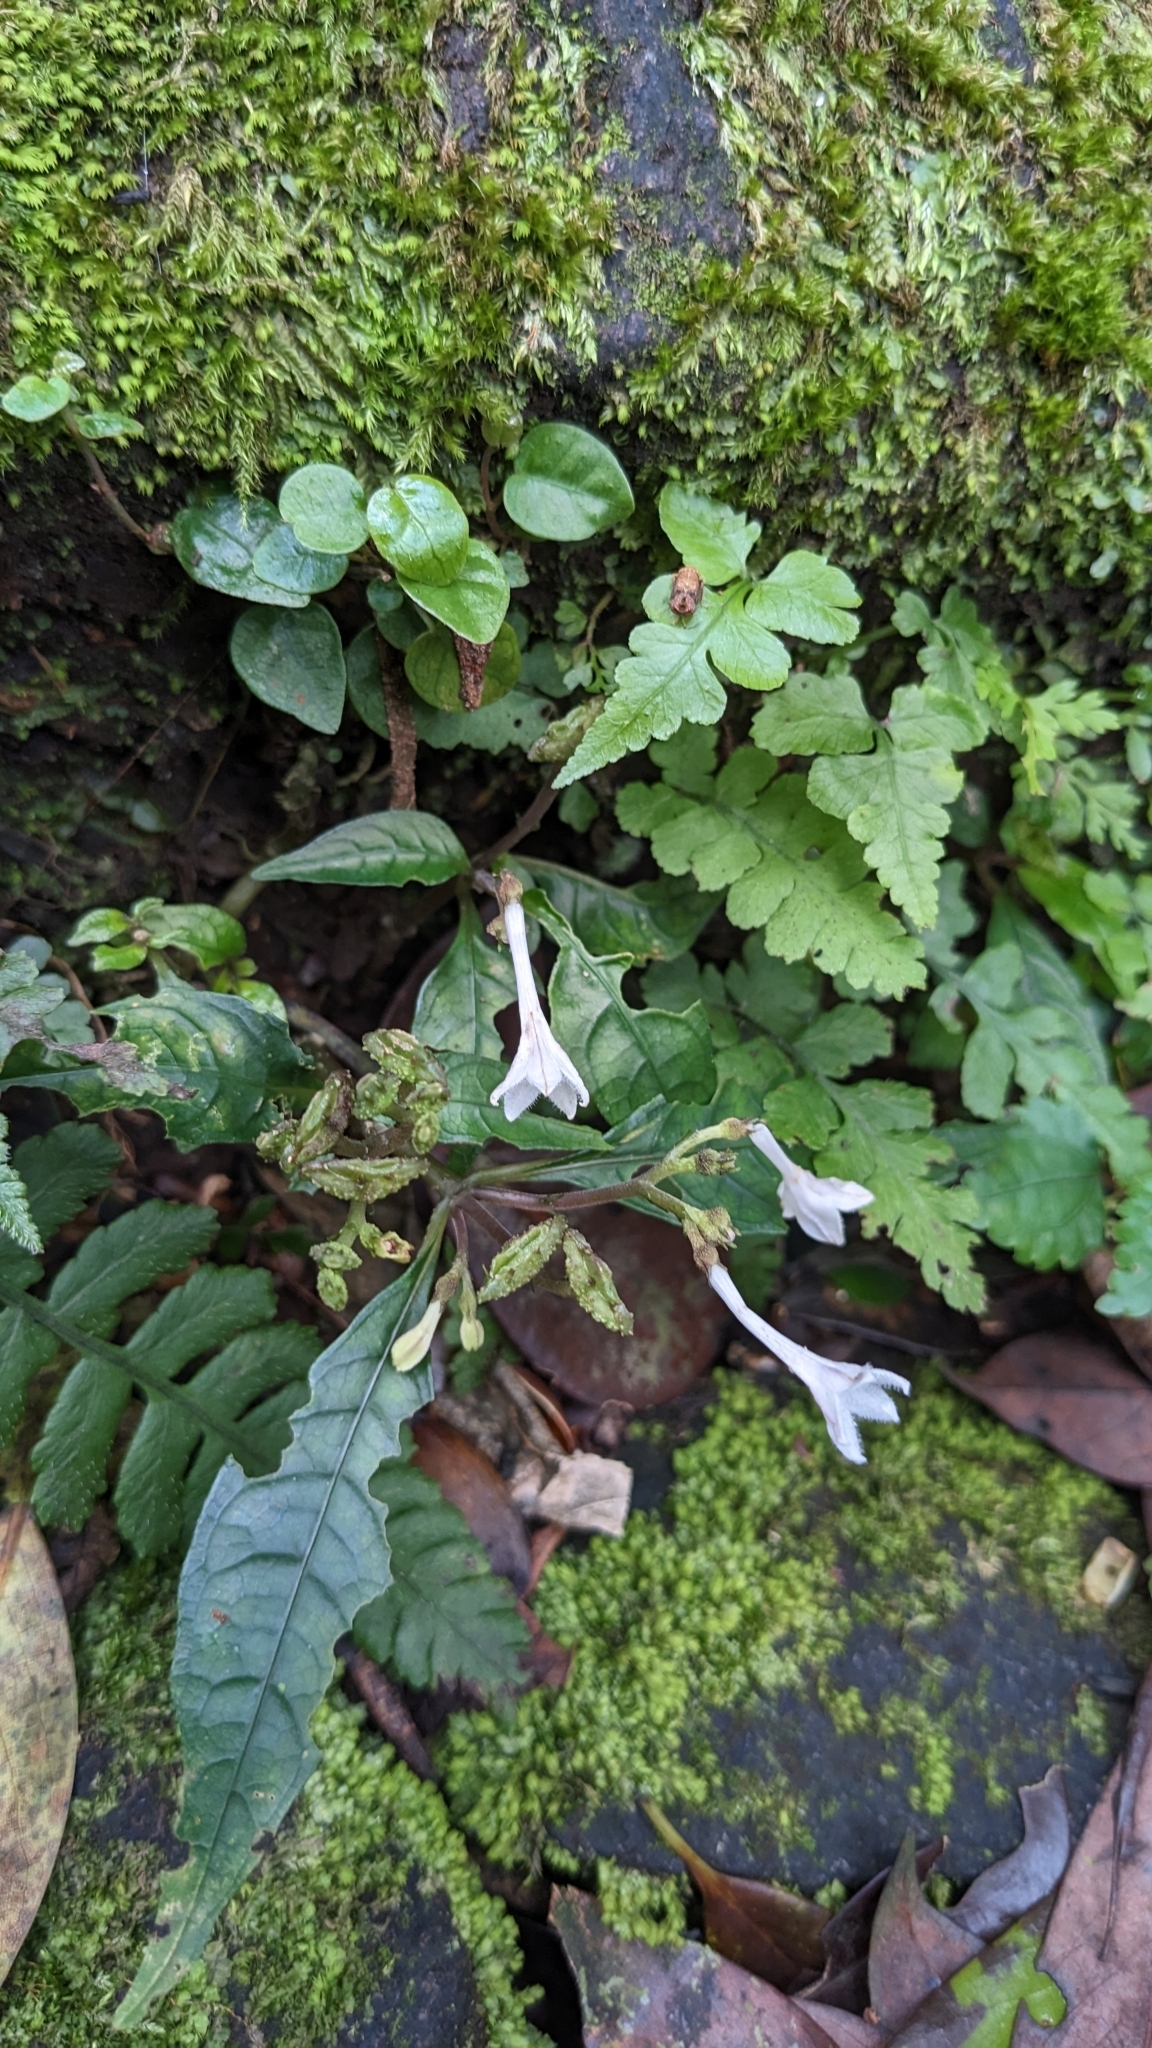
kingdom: Plantae
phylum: Tracheophyta
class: Magnoliopsida
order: Gentianales
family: Rubiaceae
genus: Ophiorrhiza
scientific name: Ophiorrhiza hayatana
